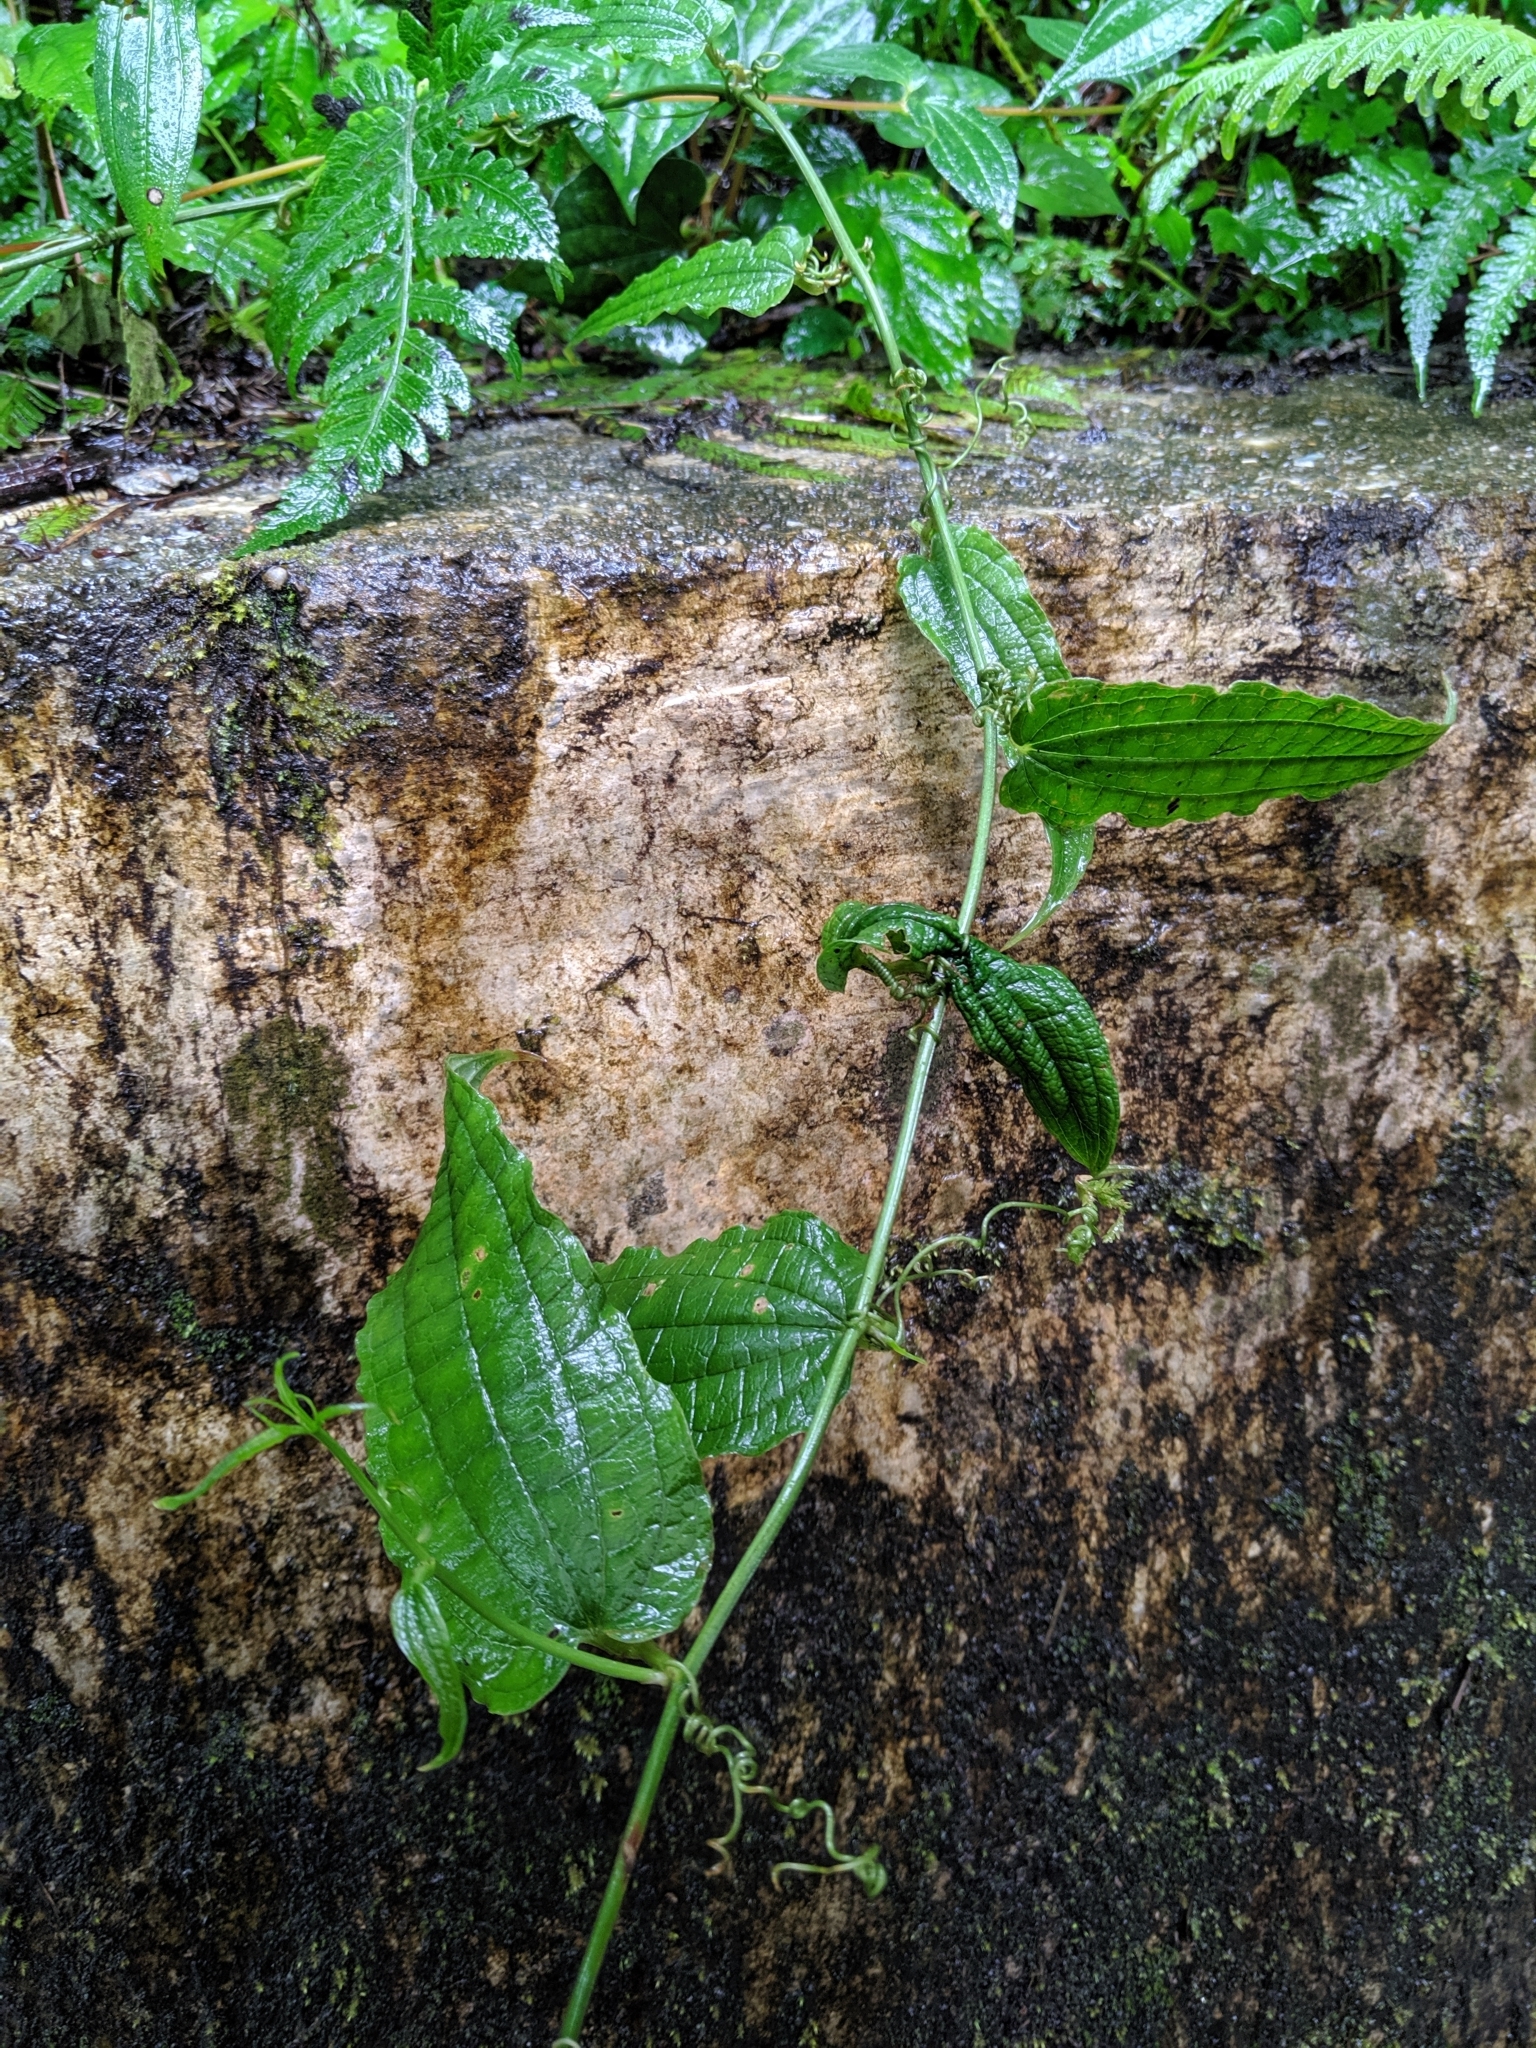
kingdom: Plantae
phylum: Tracheophyta
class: Liliopsida
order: Liliales
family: Smilacaceae
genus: Smilax
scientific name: Smilax riparia
